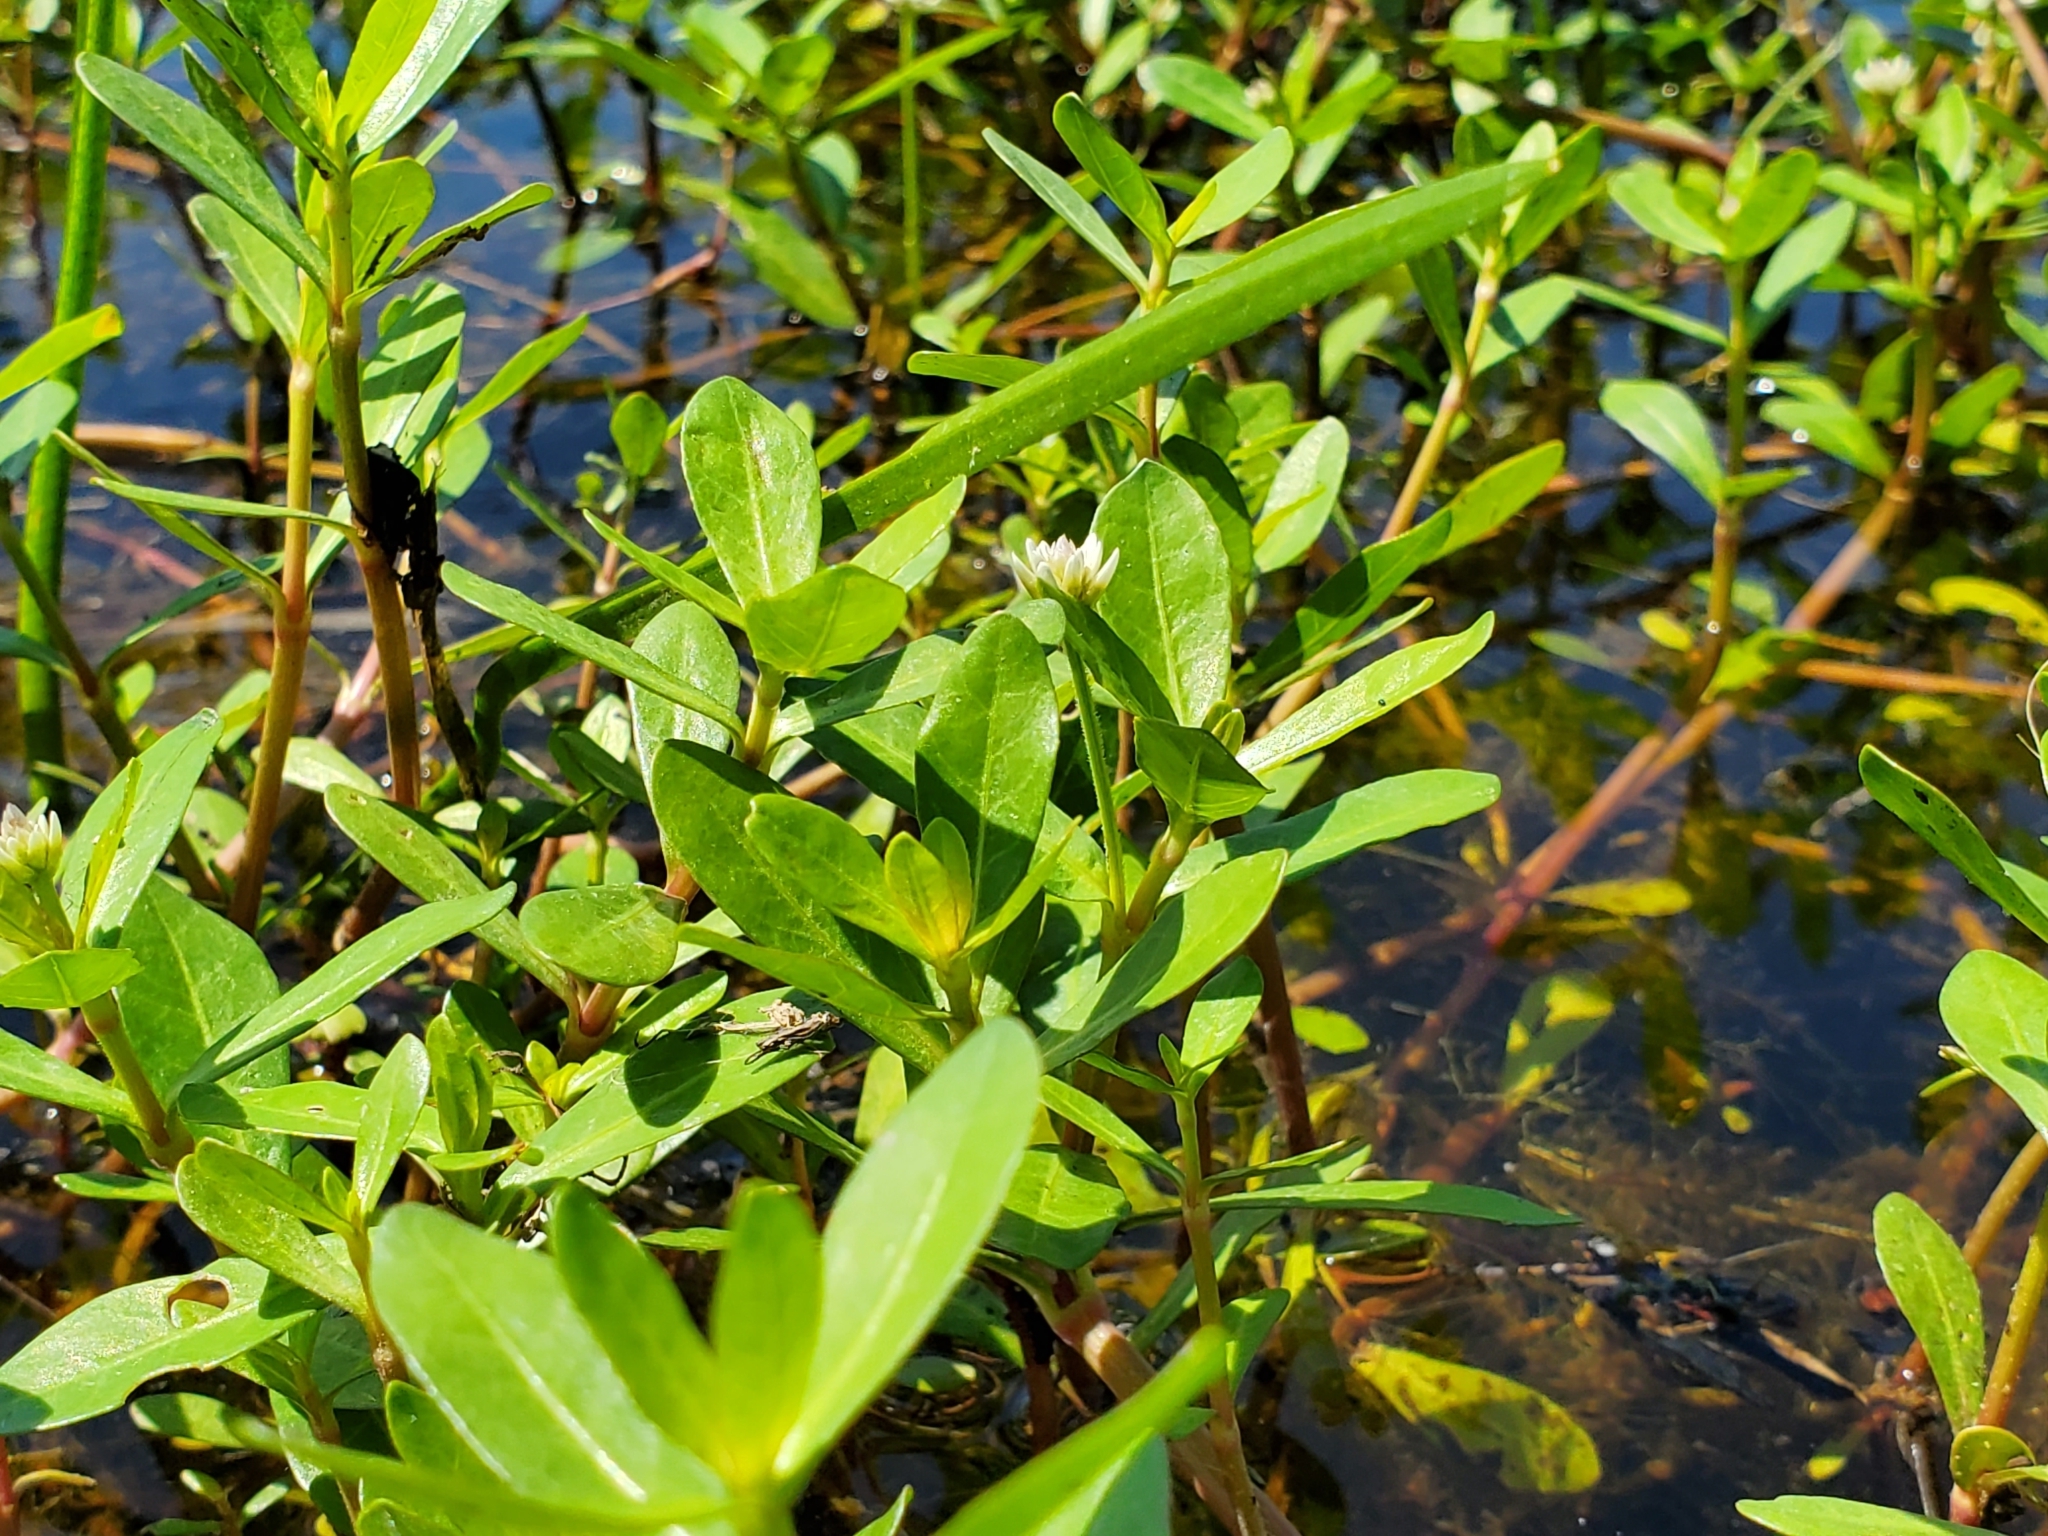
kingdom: Plantae
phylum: Tracheophyta
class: Magnoliopsida
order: Caryophyllales
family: Amaranthaceae
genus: Alternanthera
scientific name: Alternanthera philoxeroides
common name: Alligatorweed
